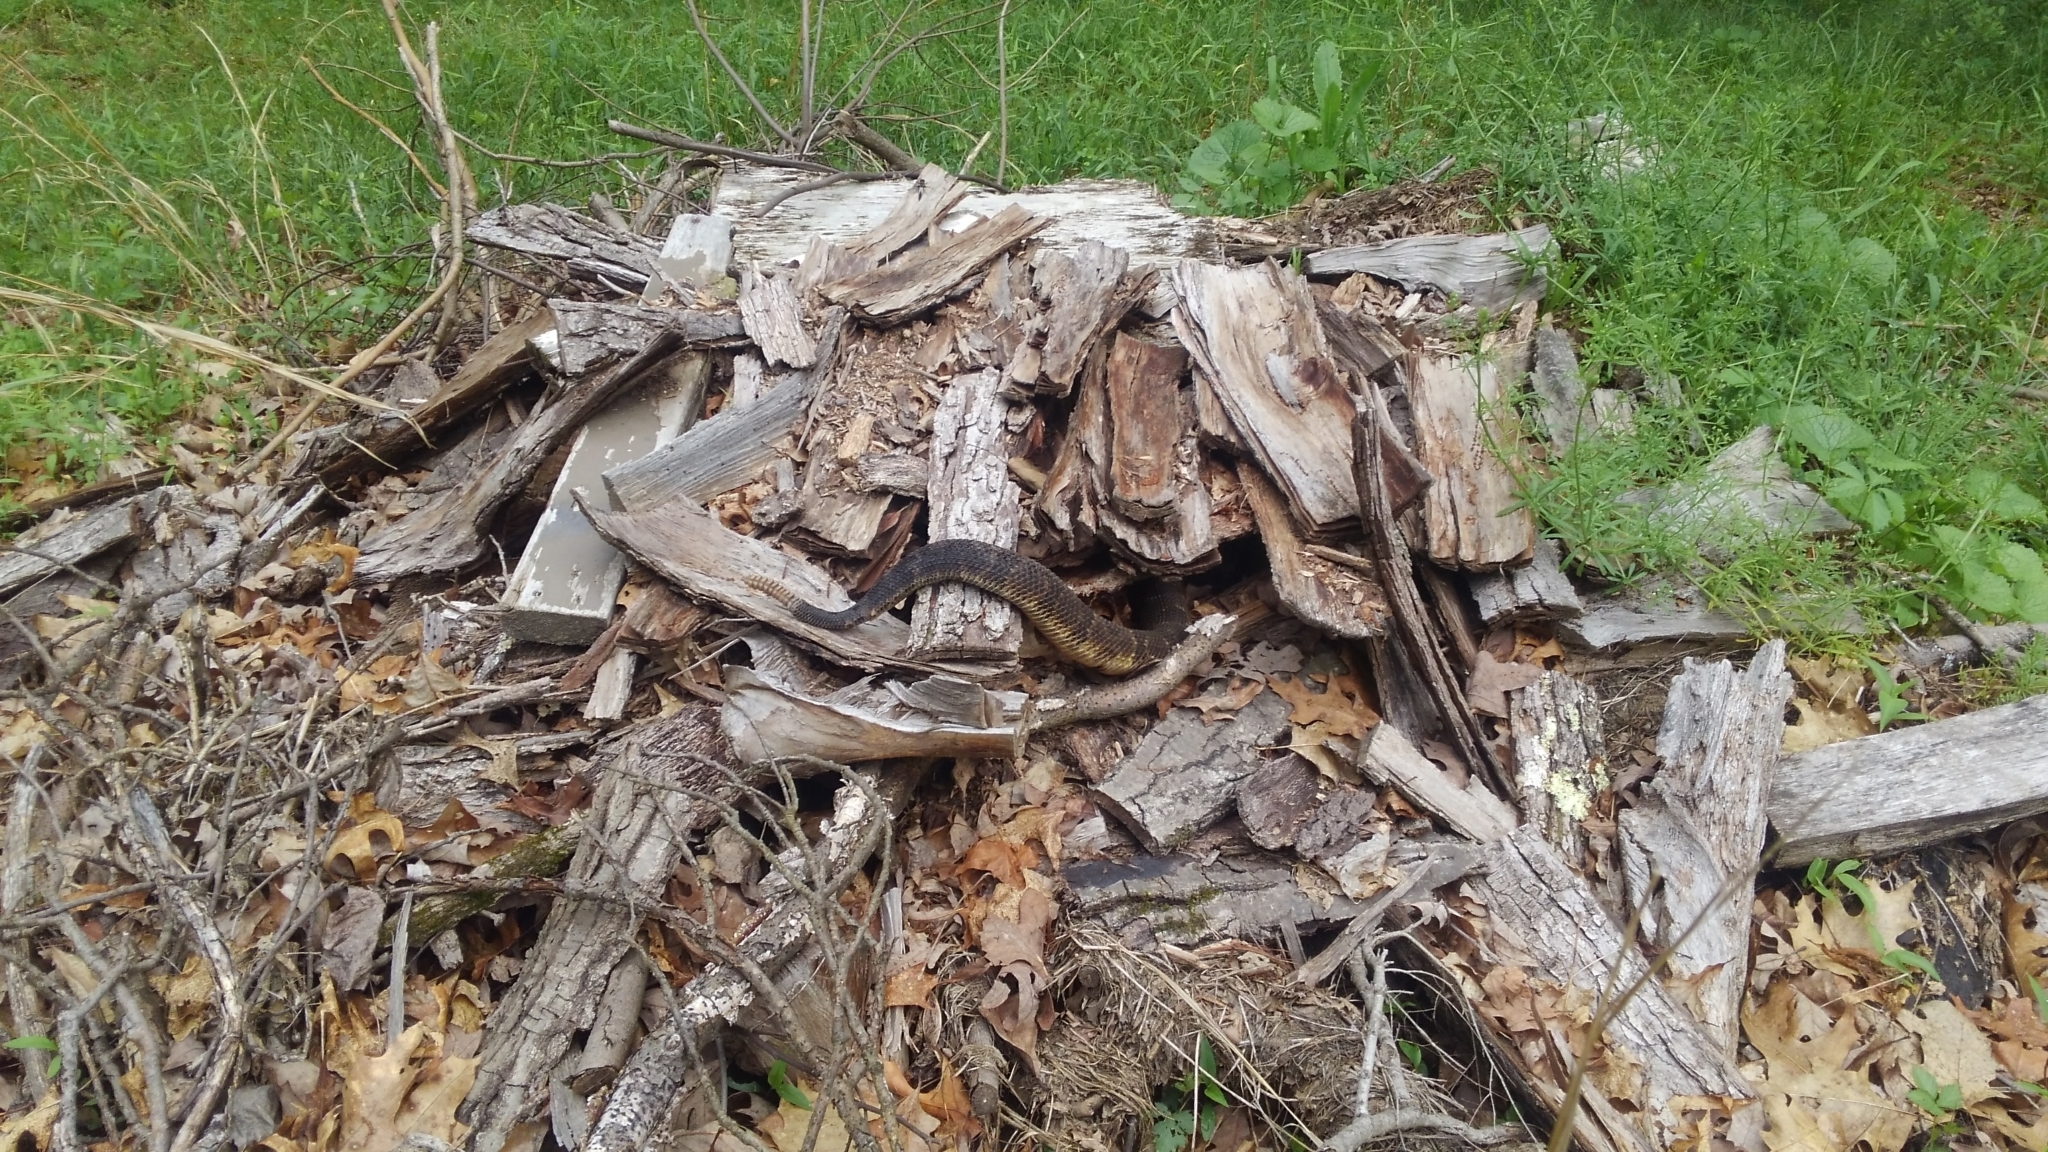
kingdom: Animalia
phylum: Chordata
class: Squamata
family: Viperidae
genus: Crotalus
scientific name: Crotalus horridus
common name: Timber rattlesnake
